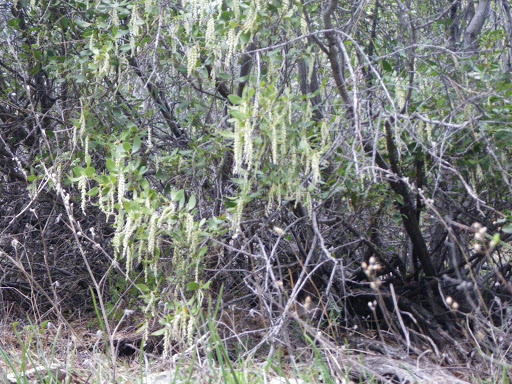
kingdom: Plantae
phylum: Tracheophyta
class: Magnoliopsida
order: Garryales
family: Garryaceae
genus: Garrya
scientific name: Garrya fremontii
